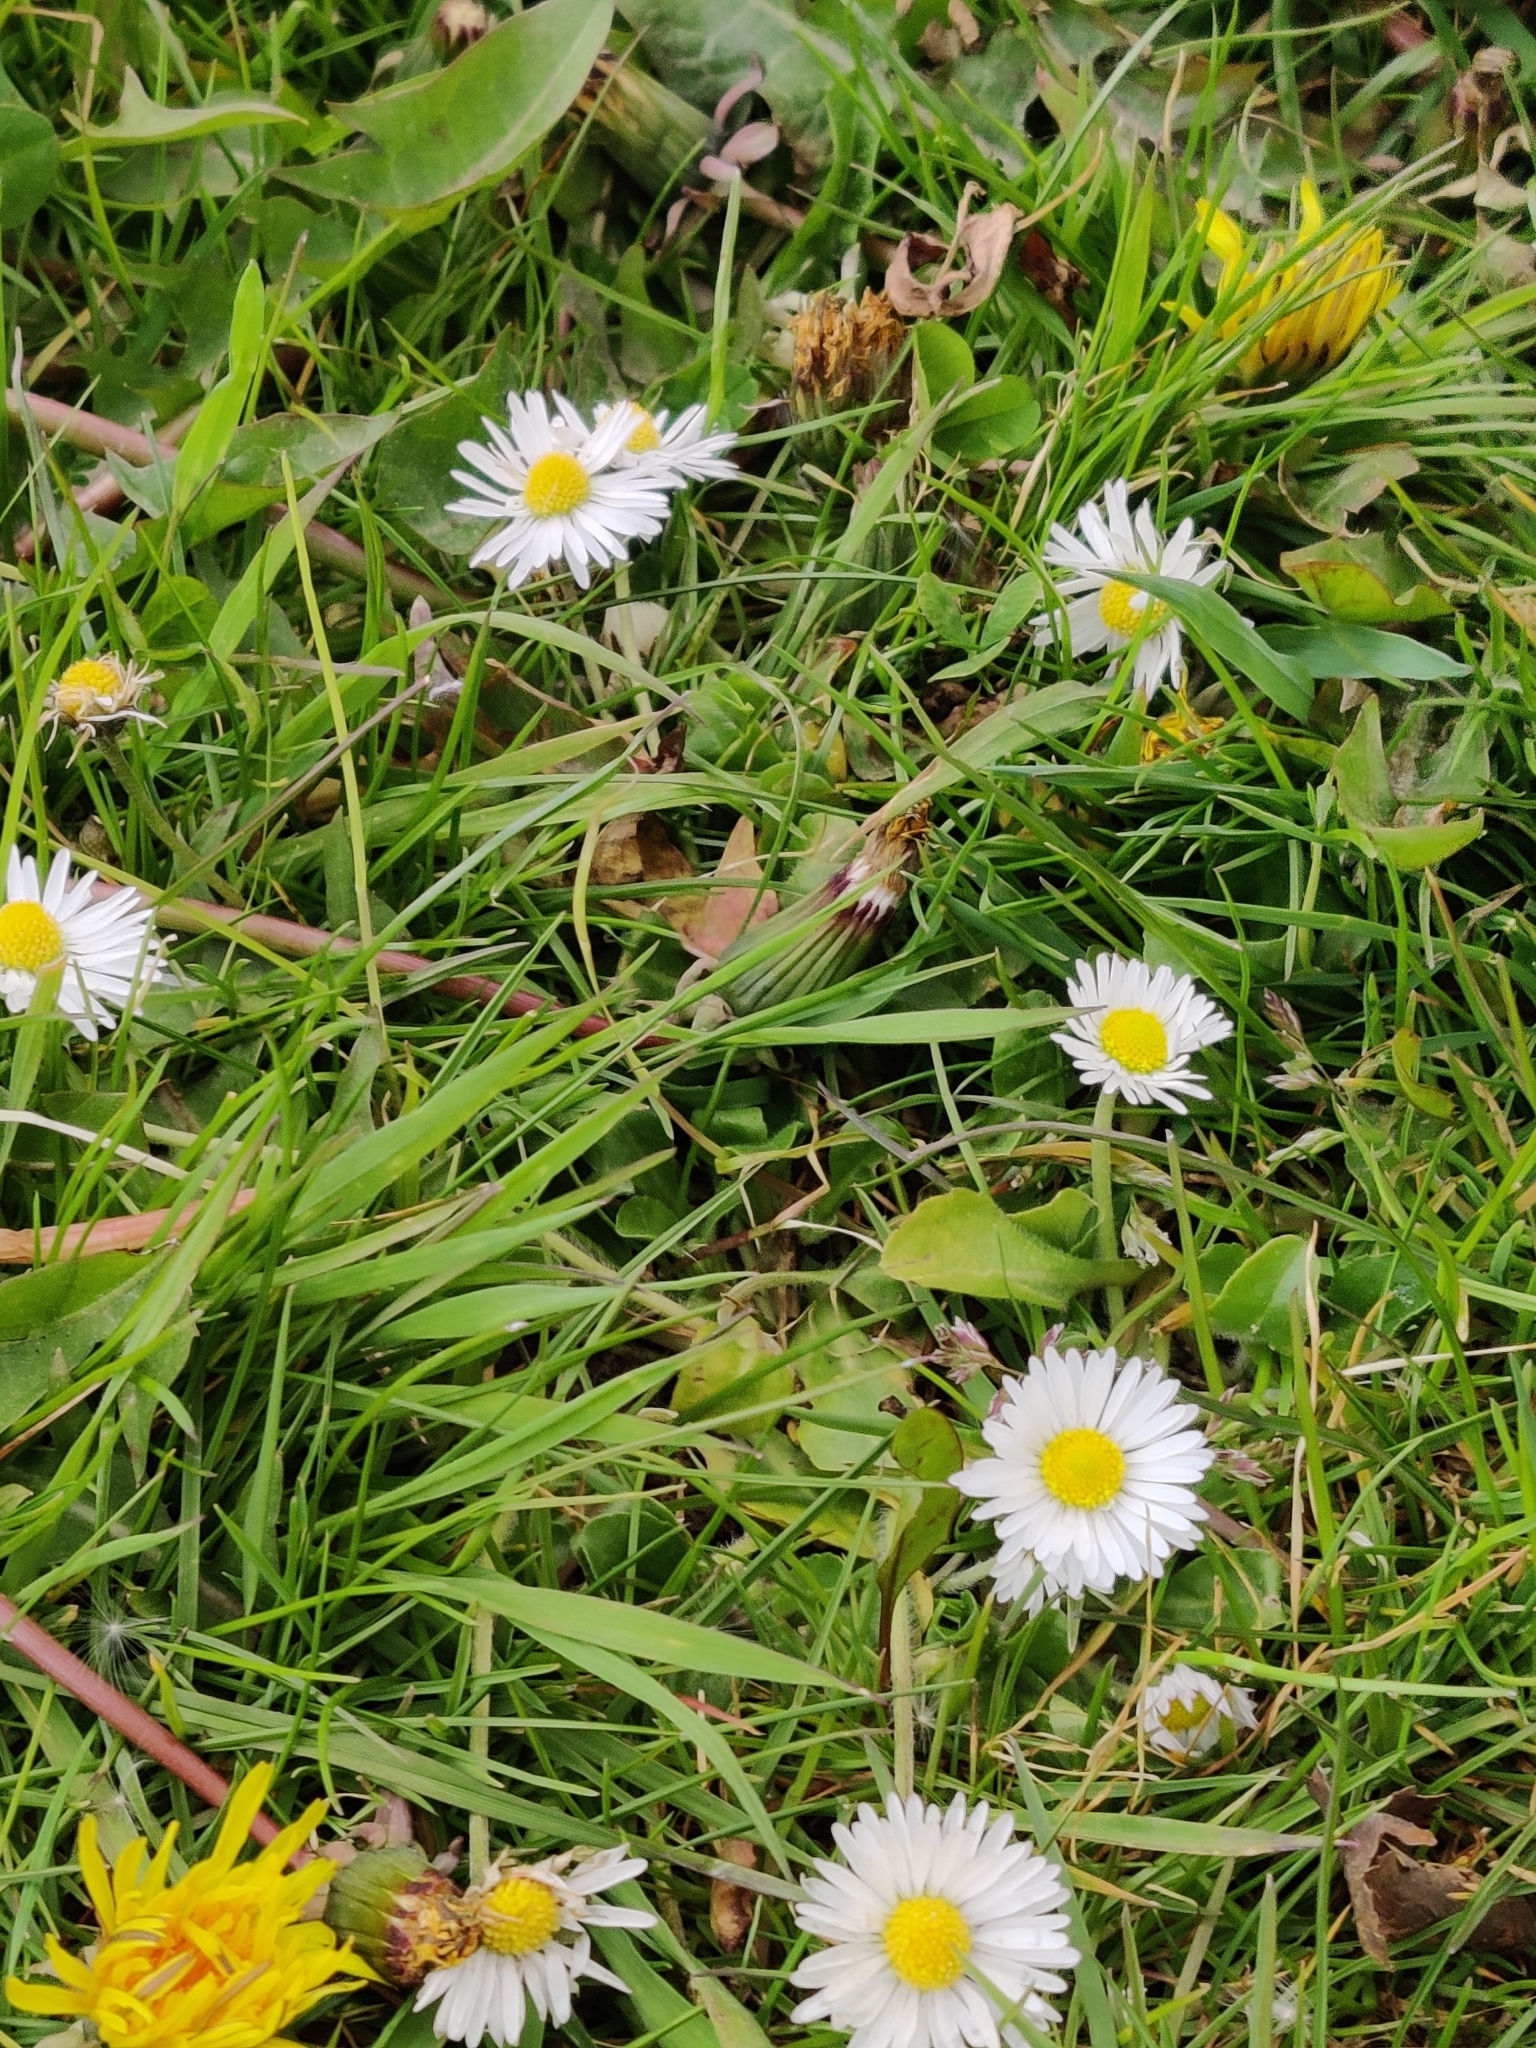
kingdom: Plantae
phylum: Tracheophyta
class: Magnoliopsida
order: Asterales
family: Asteraceae
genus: Bellis
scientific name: Bellis perennis
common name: Lawndaisy
